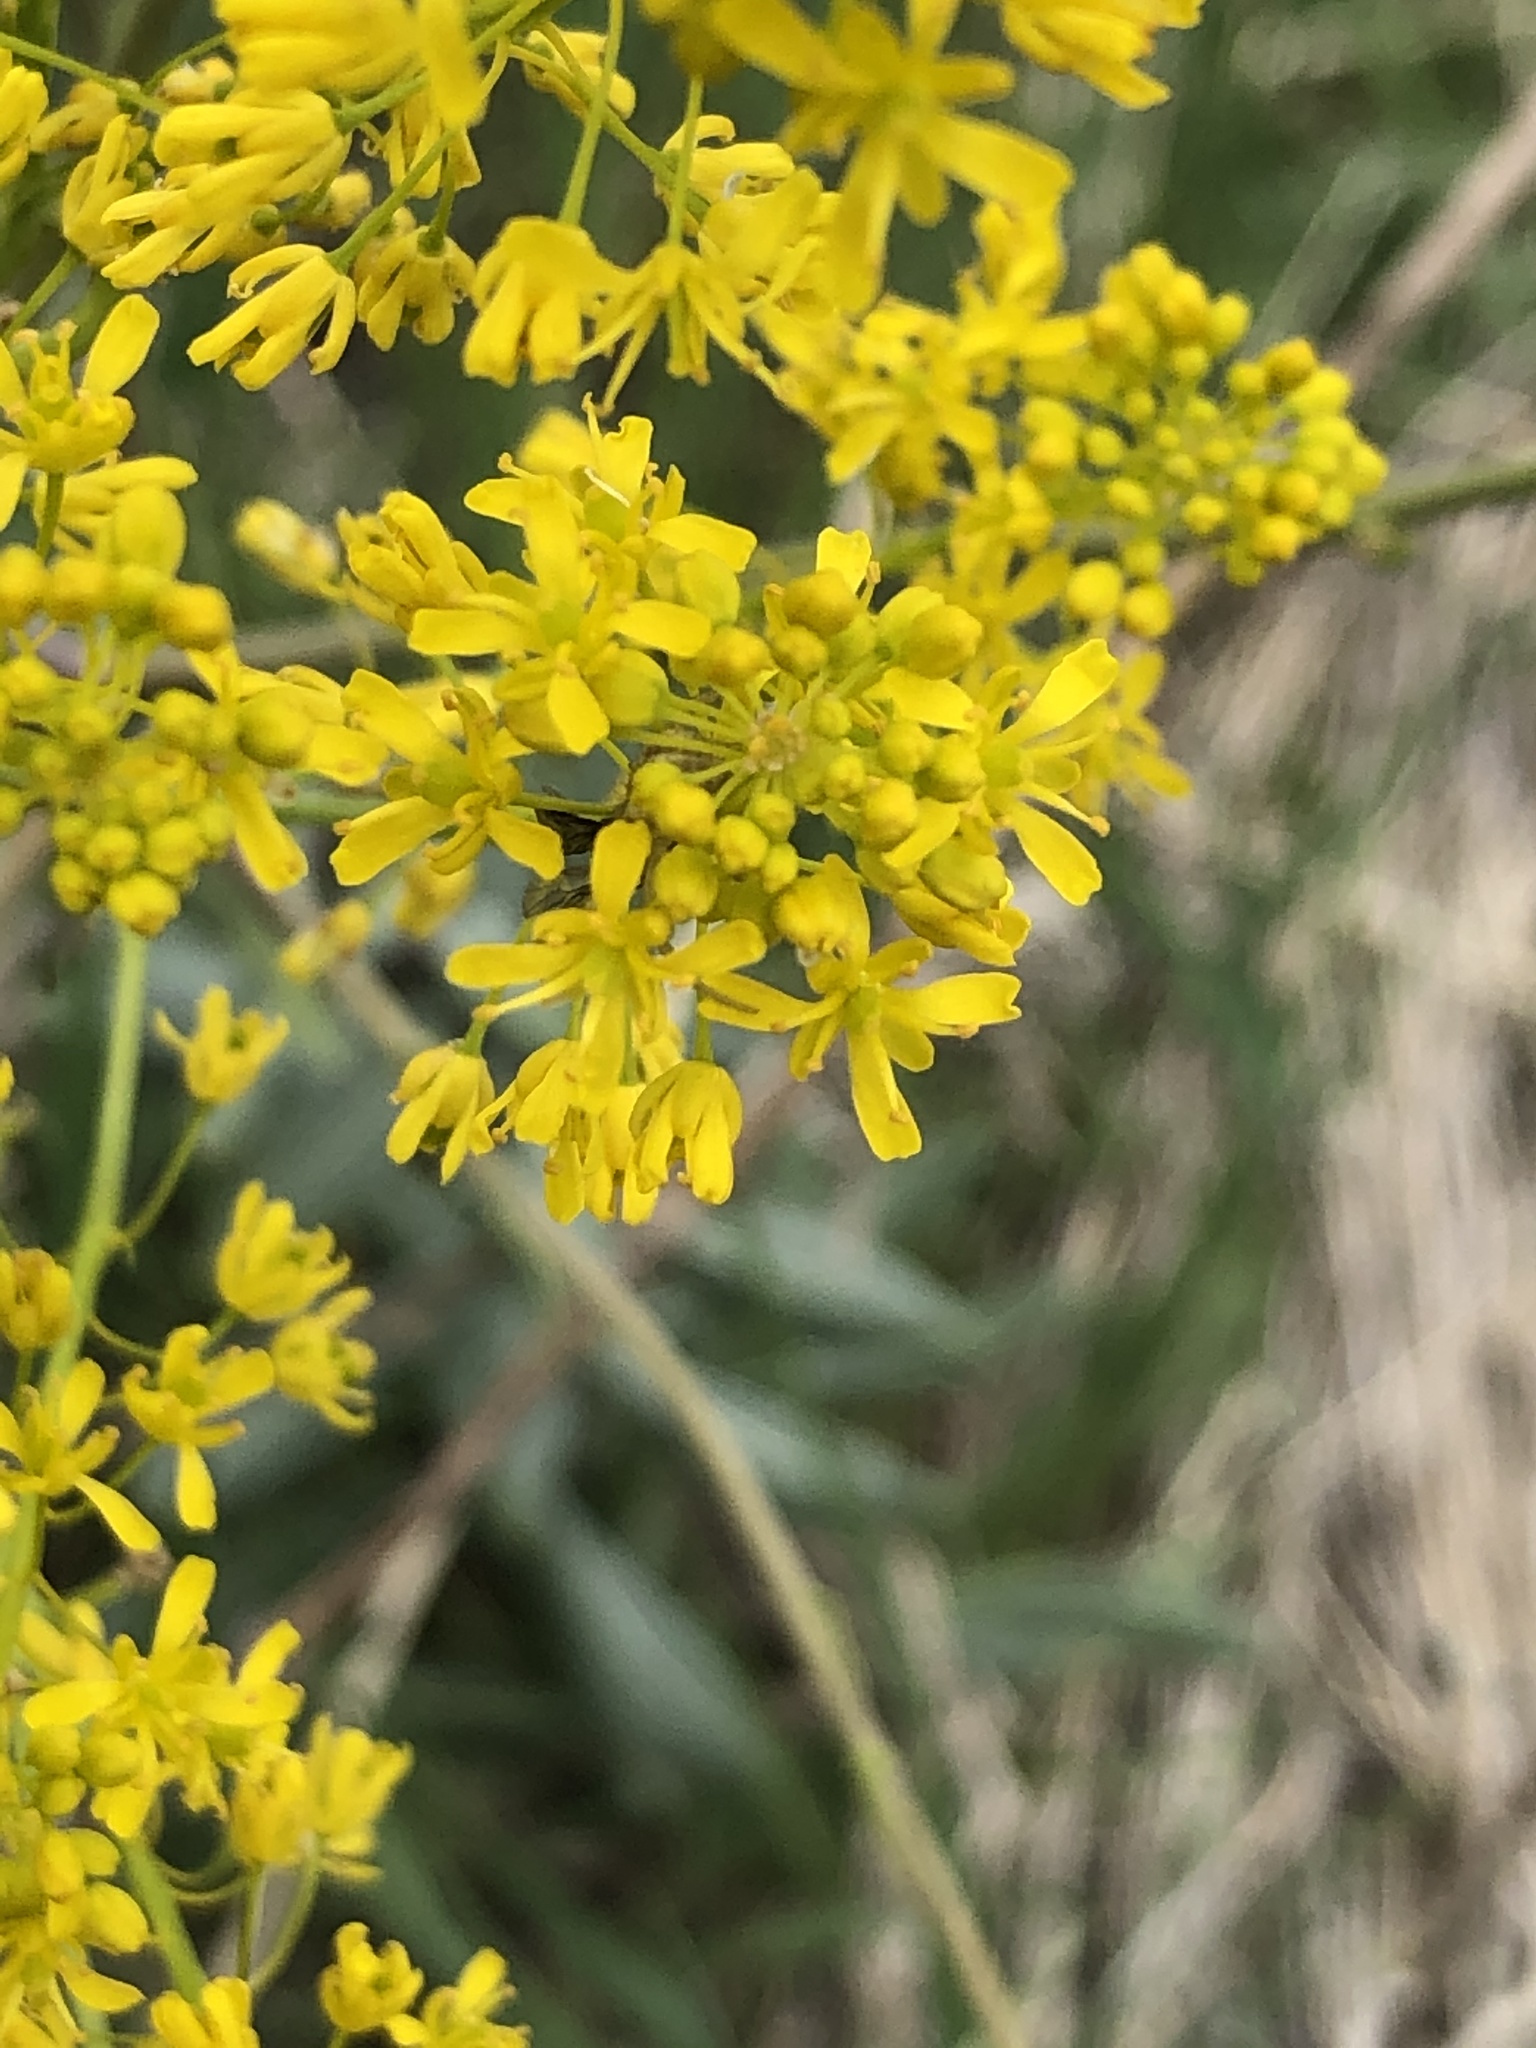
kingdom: Plantae
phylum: Tracheophyta
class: Magnoliopsida
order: Brassicales
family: Brassicaceae
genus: Isatis
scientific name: Isatis tinctoria
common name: Woad
